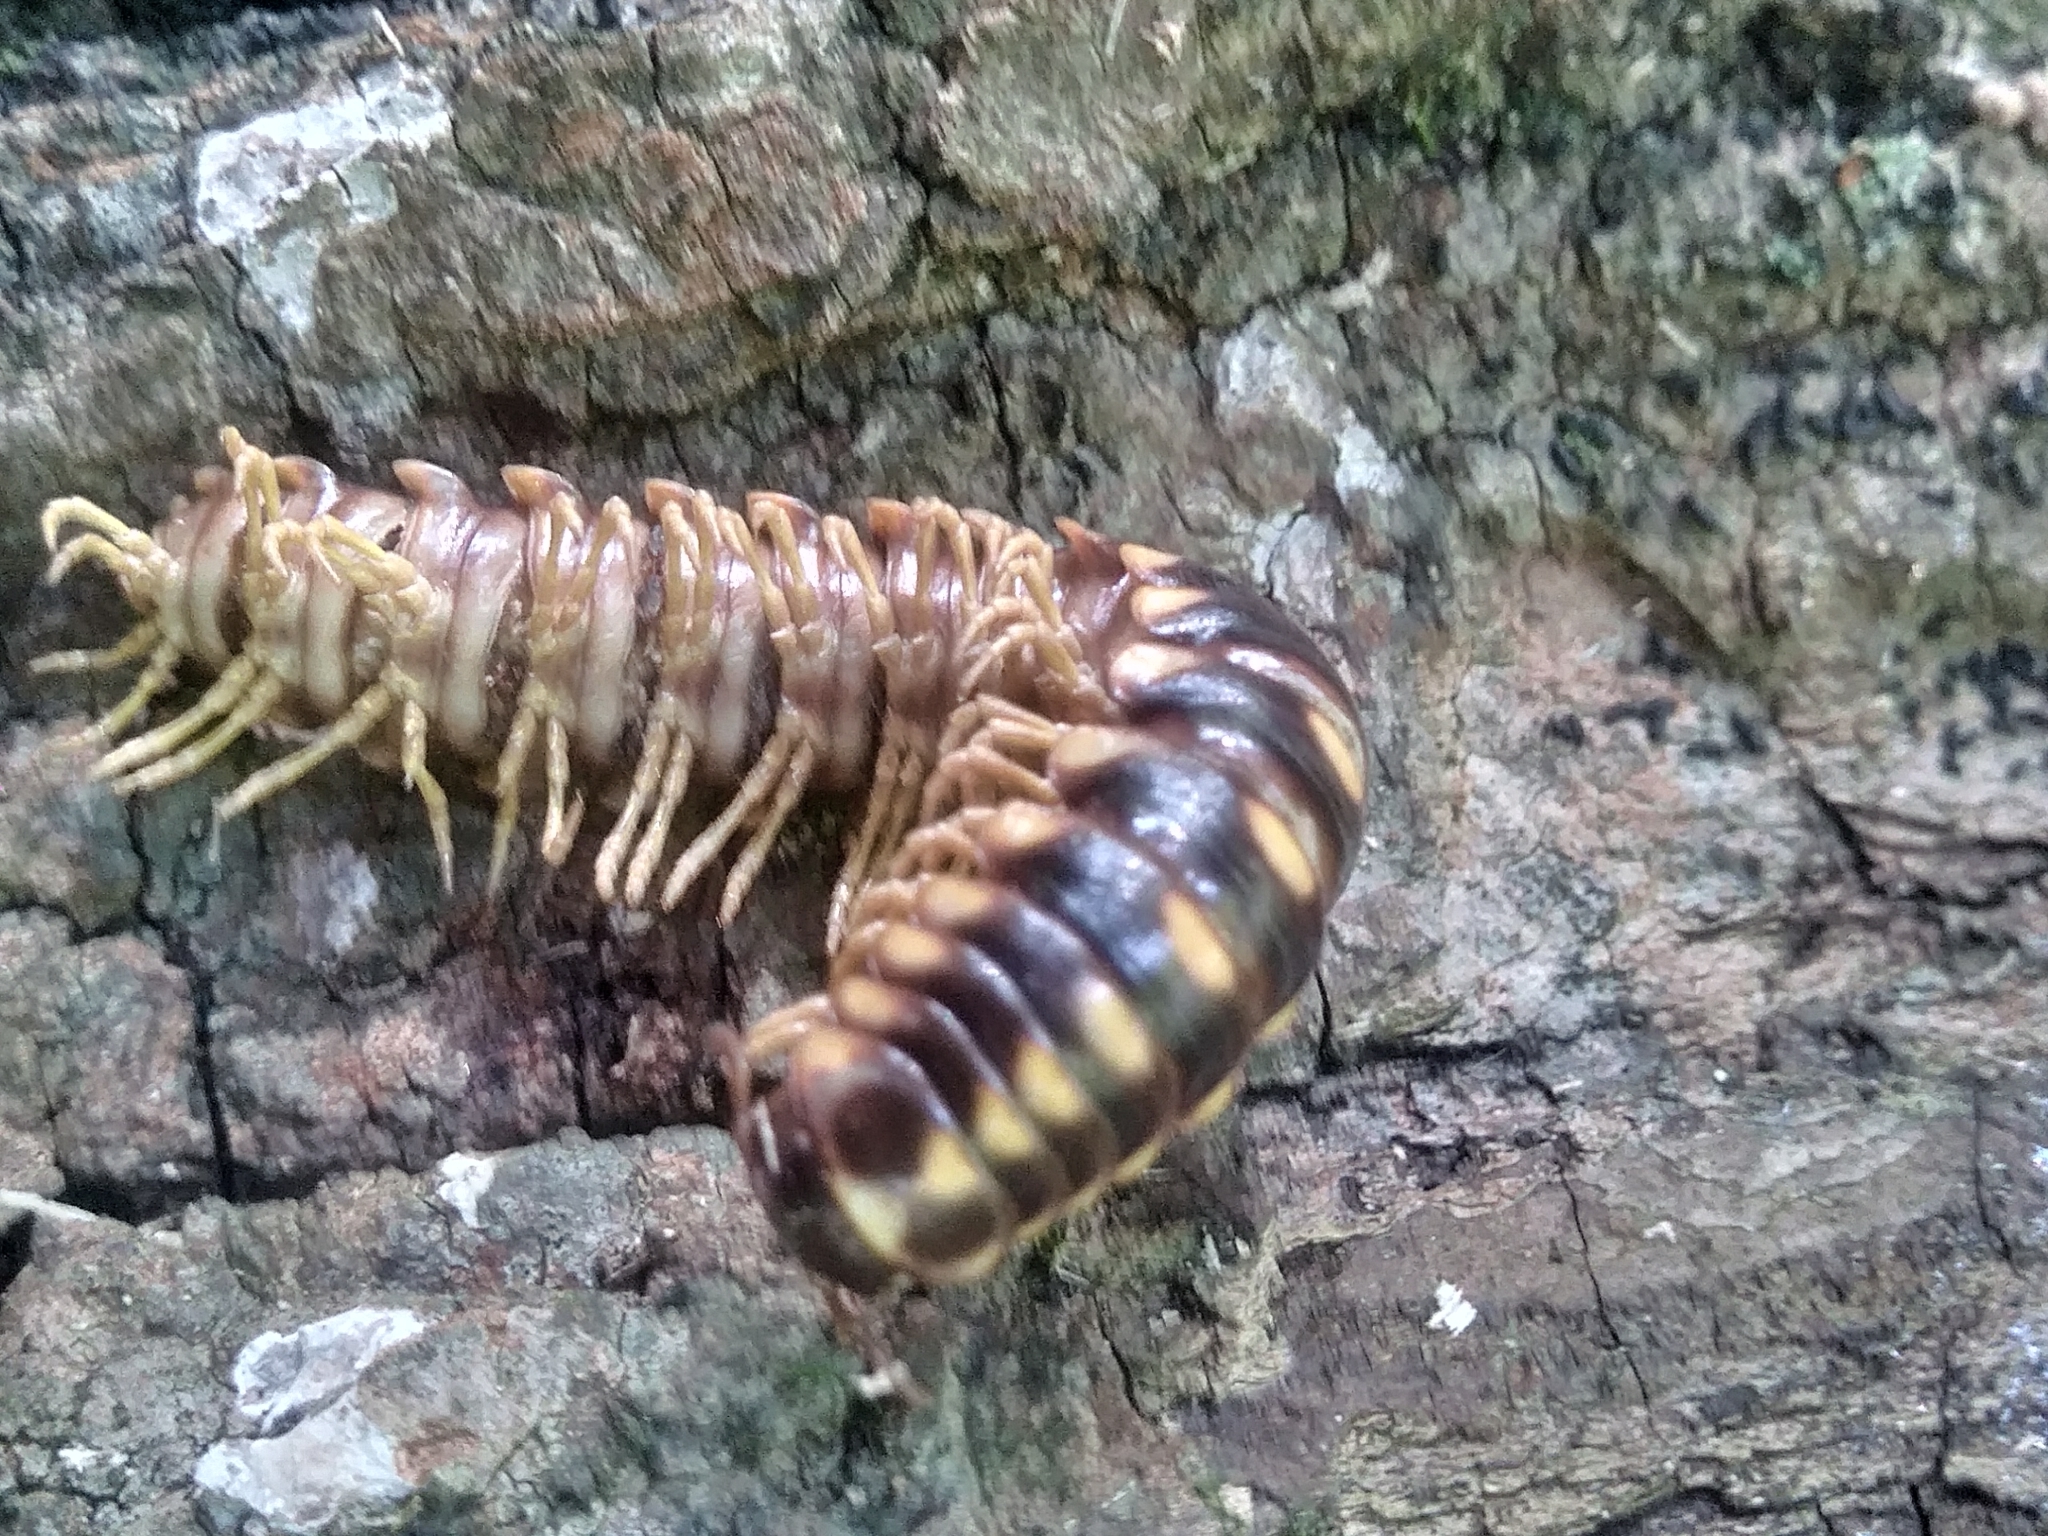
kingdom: Animalia
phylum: Arthropoda
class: Diplopoda
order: Polydesmida
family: Xystodesmidae
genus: Rudiloria
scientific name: Rudiloria trimaculata
